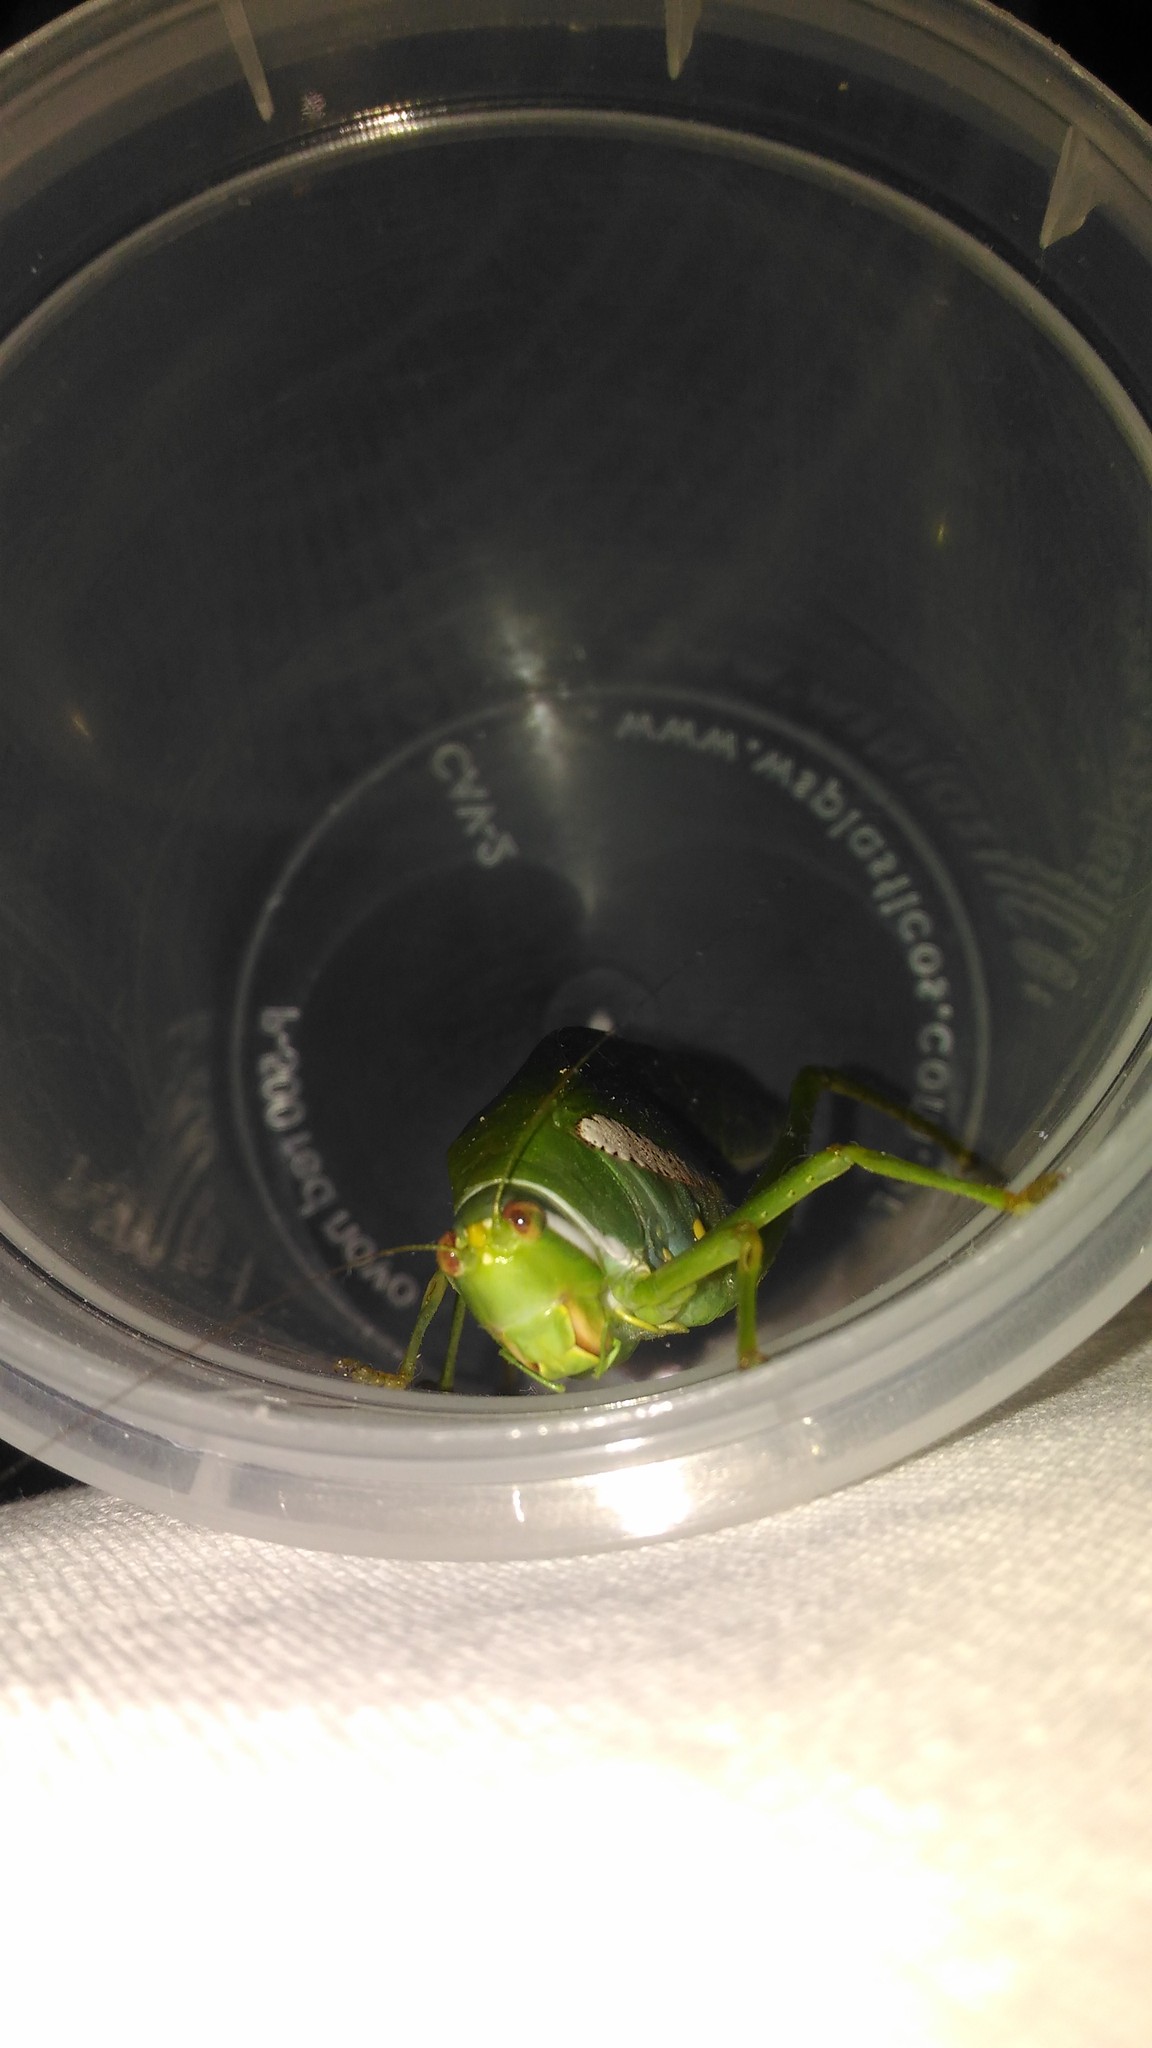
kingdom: Animalia
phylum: Arthropoda
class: Insecta
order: Orthoptera
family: Tettigoniidae
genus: Philophyllia
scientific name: Philophyllia latior
